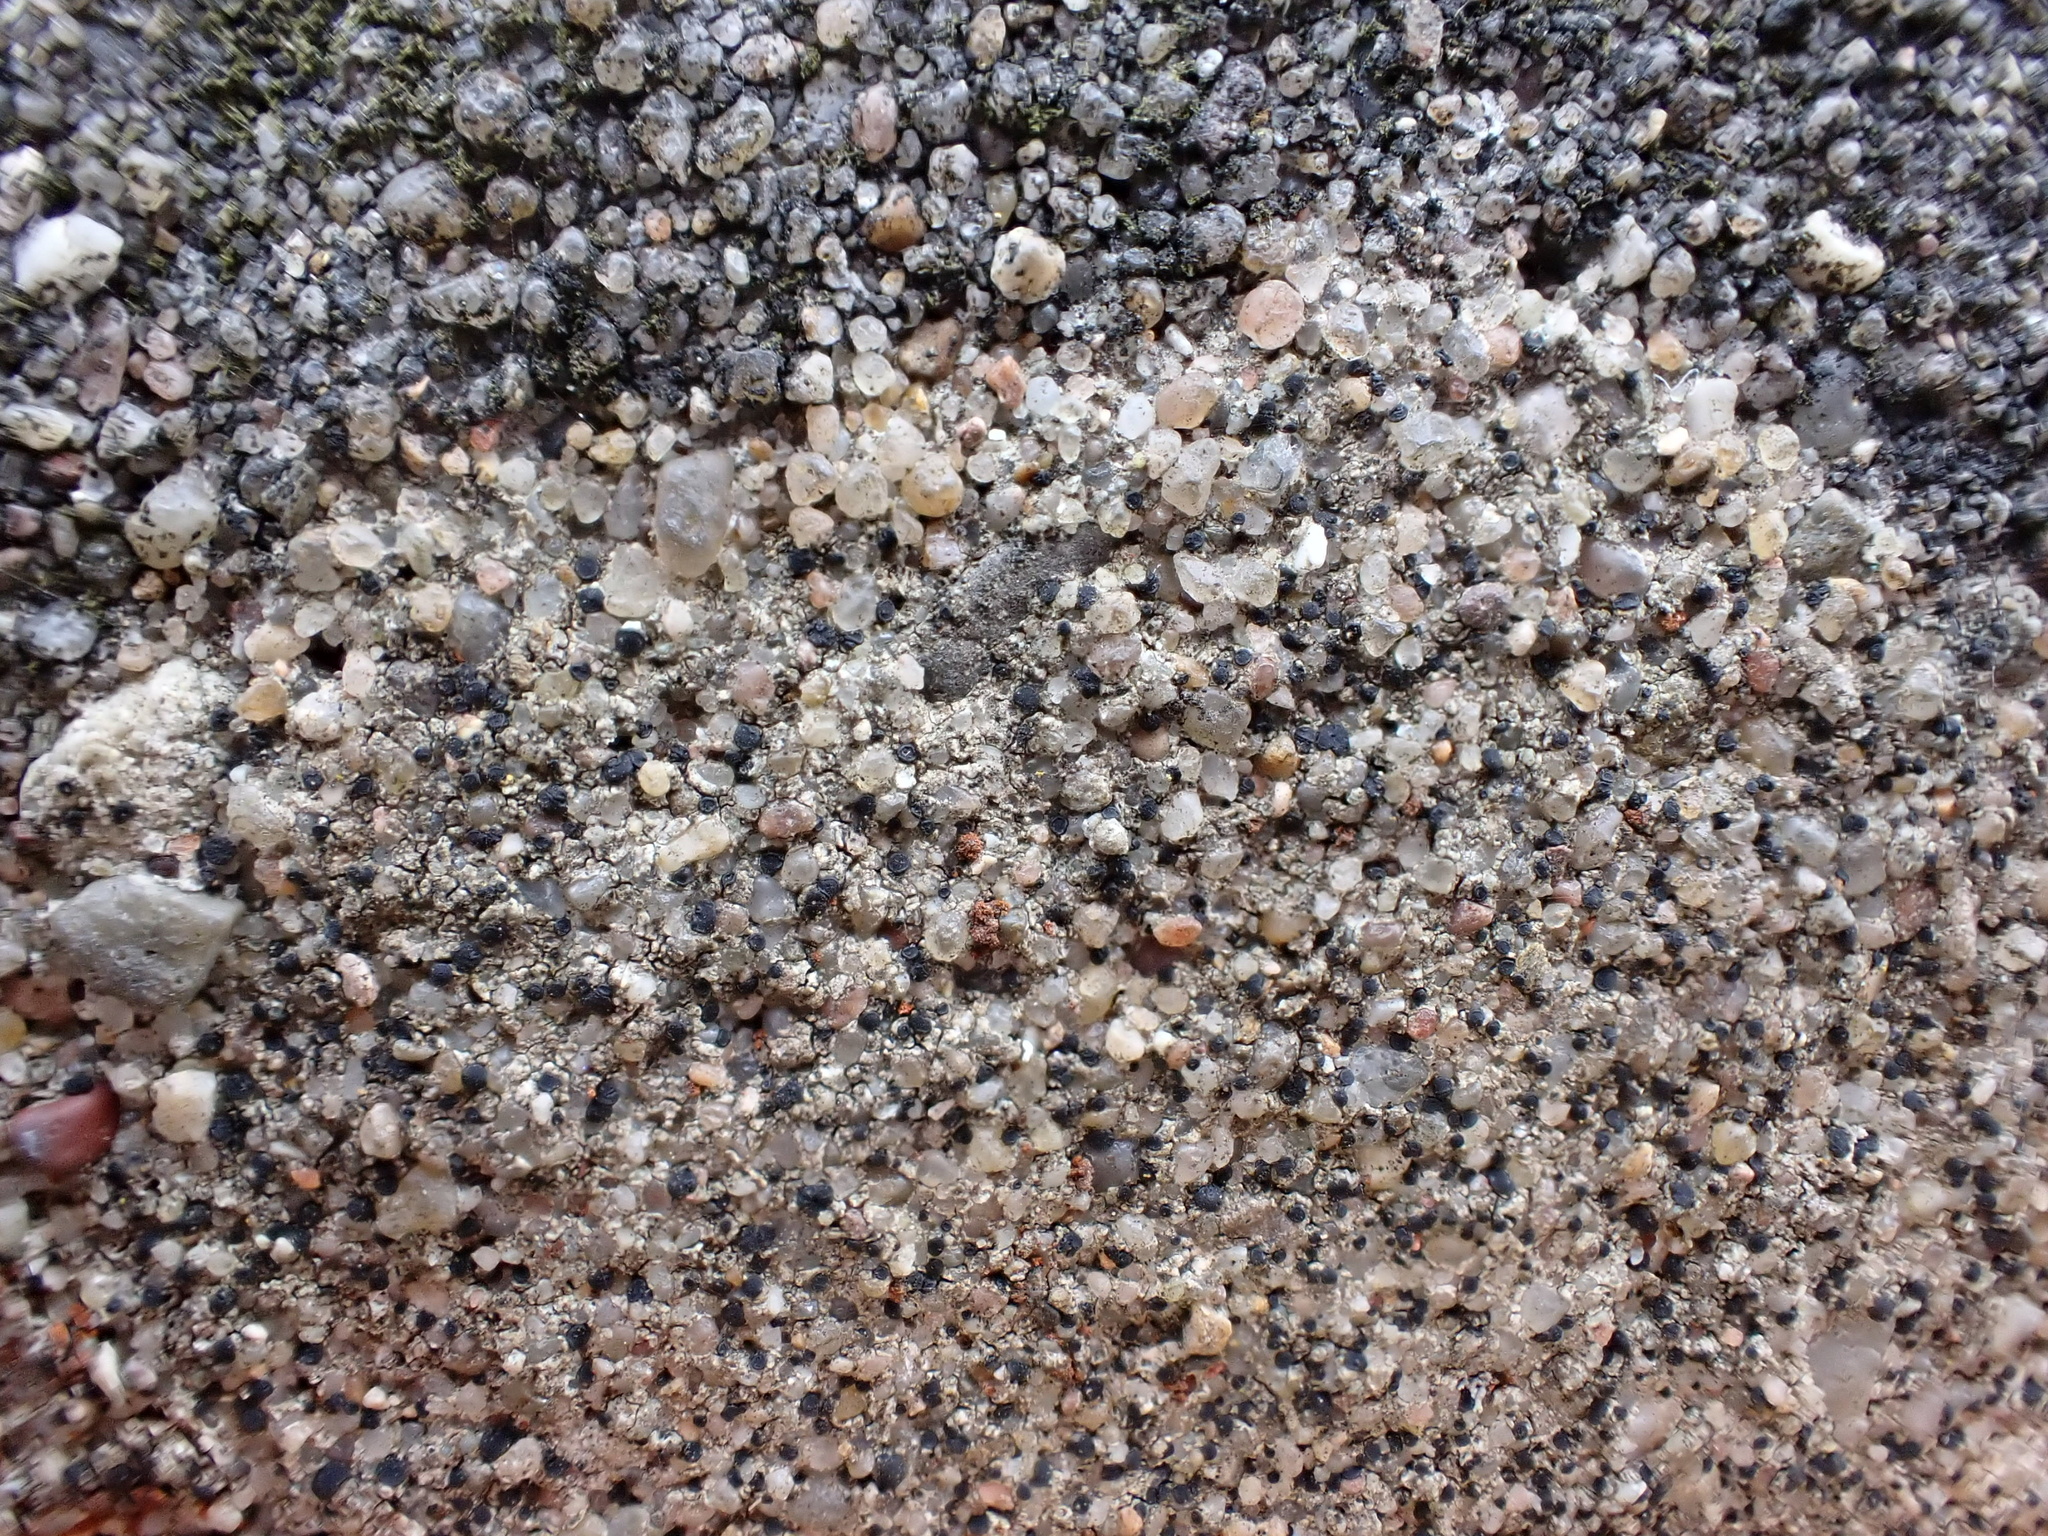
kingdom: Fungi
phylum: Ascomycota
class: Lecanoromycetes
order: Lecanorales
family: Lecanoraceae
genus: Lecidella
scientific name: Lecidella stigmatea
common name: Limestone disc lichen
